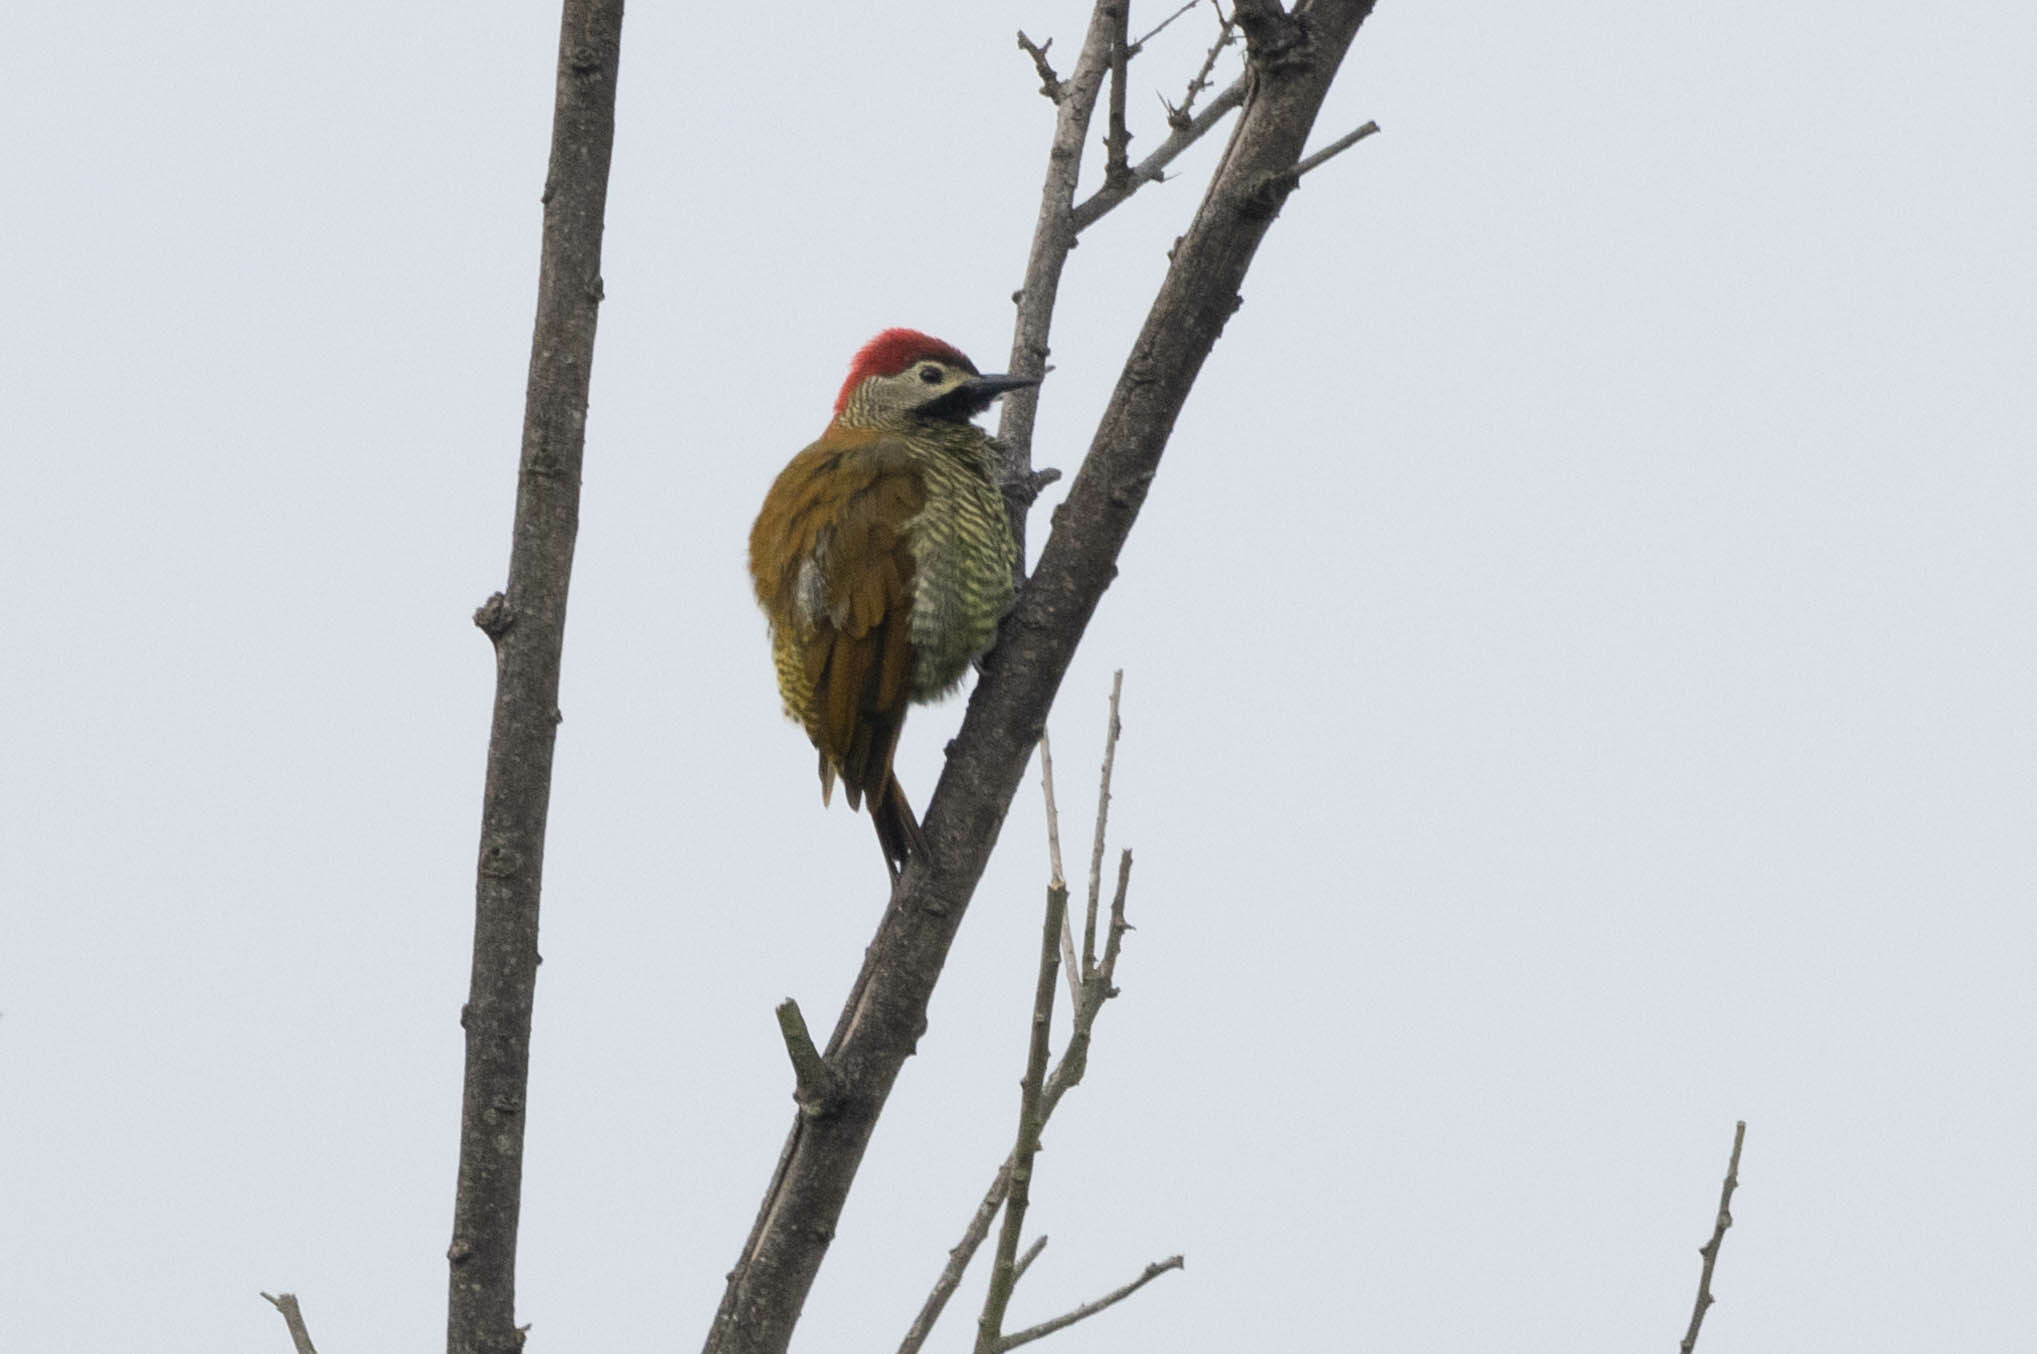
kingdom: Animalia
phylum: Chordata
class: Aves
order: Piciformes
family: Picidae
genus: Colaptes
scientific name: Colaptes rubiginosus
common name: Golden-olive woodpecker
